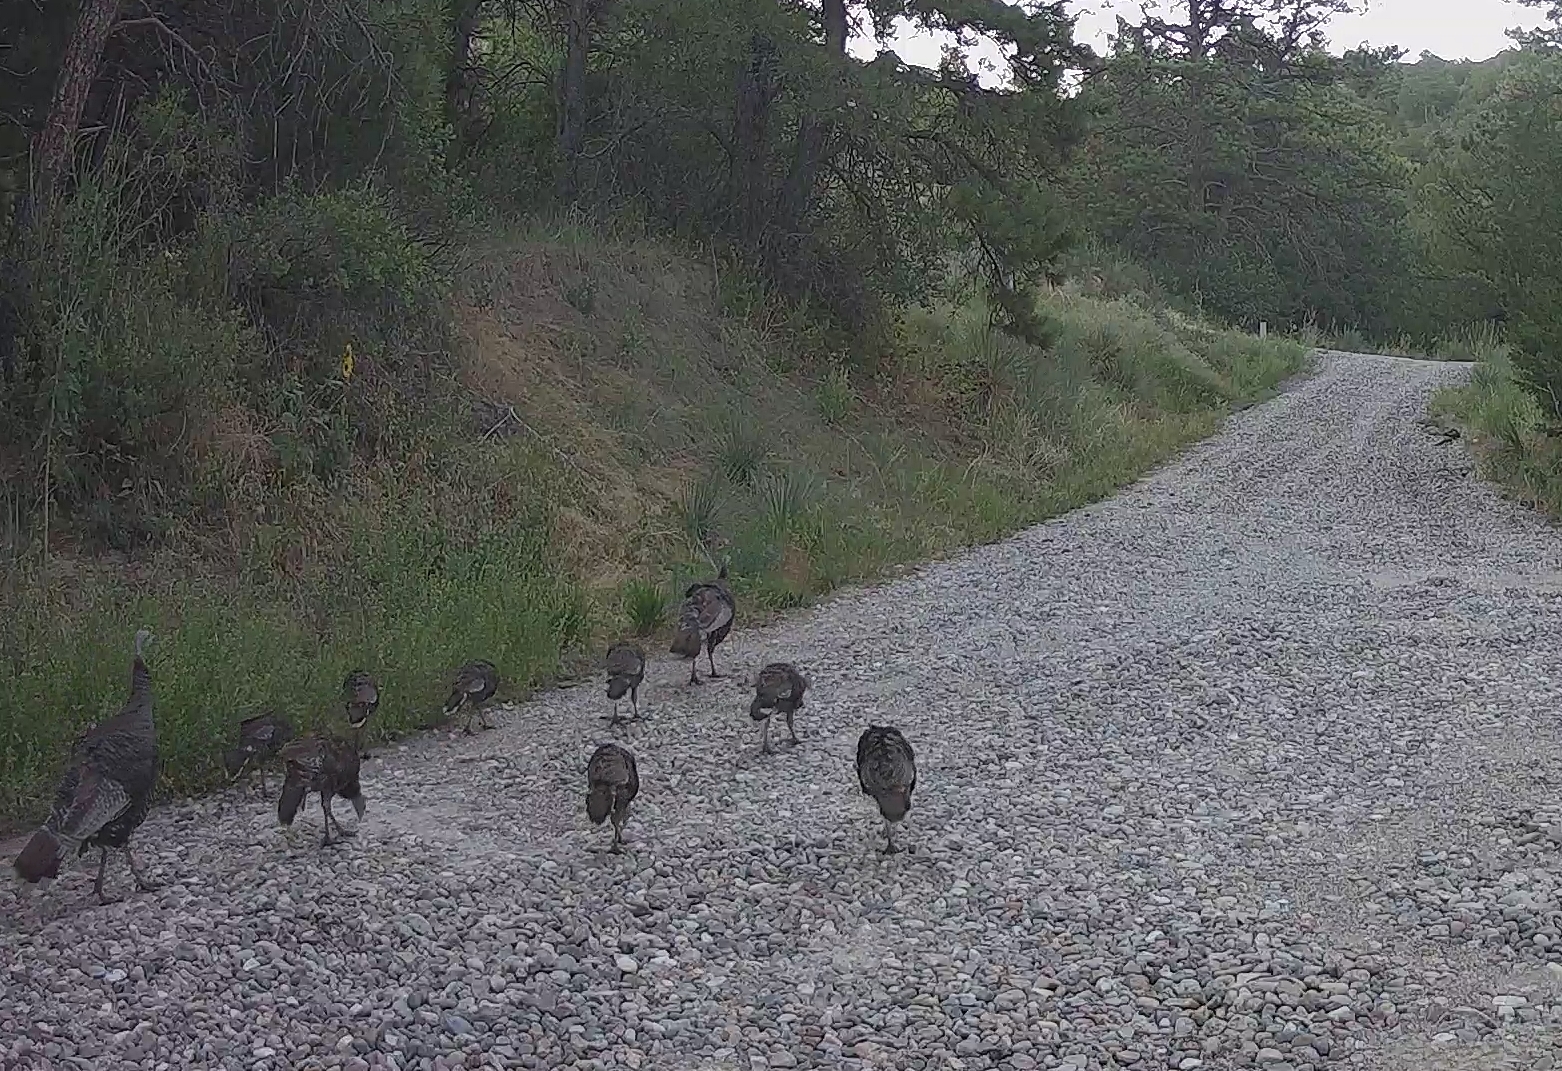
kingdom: Animalia
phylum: Chordata
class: Aves
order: Galliformes
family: Phasianidae
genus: Meleagris
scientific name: Meleagris gallopavo
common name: Wild turkey
